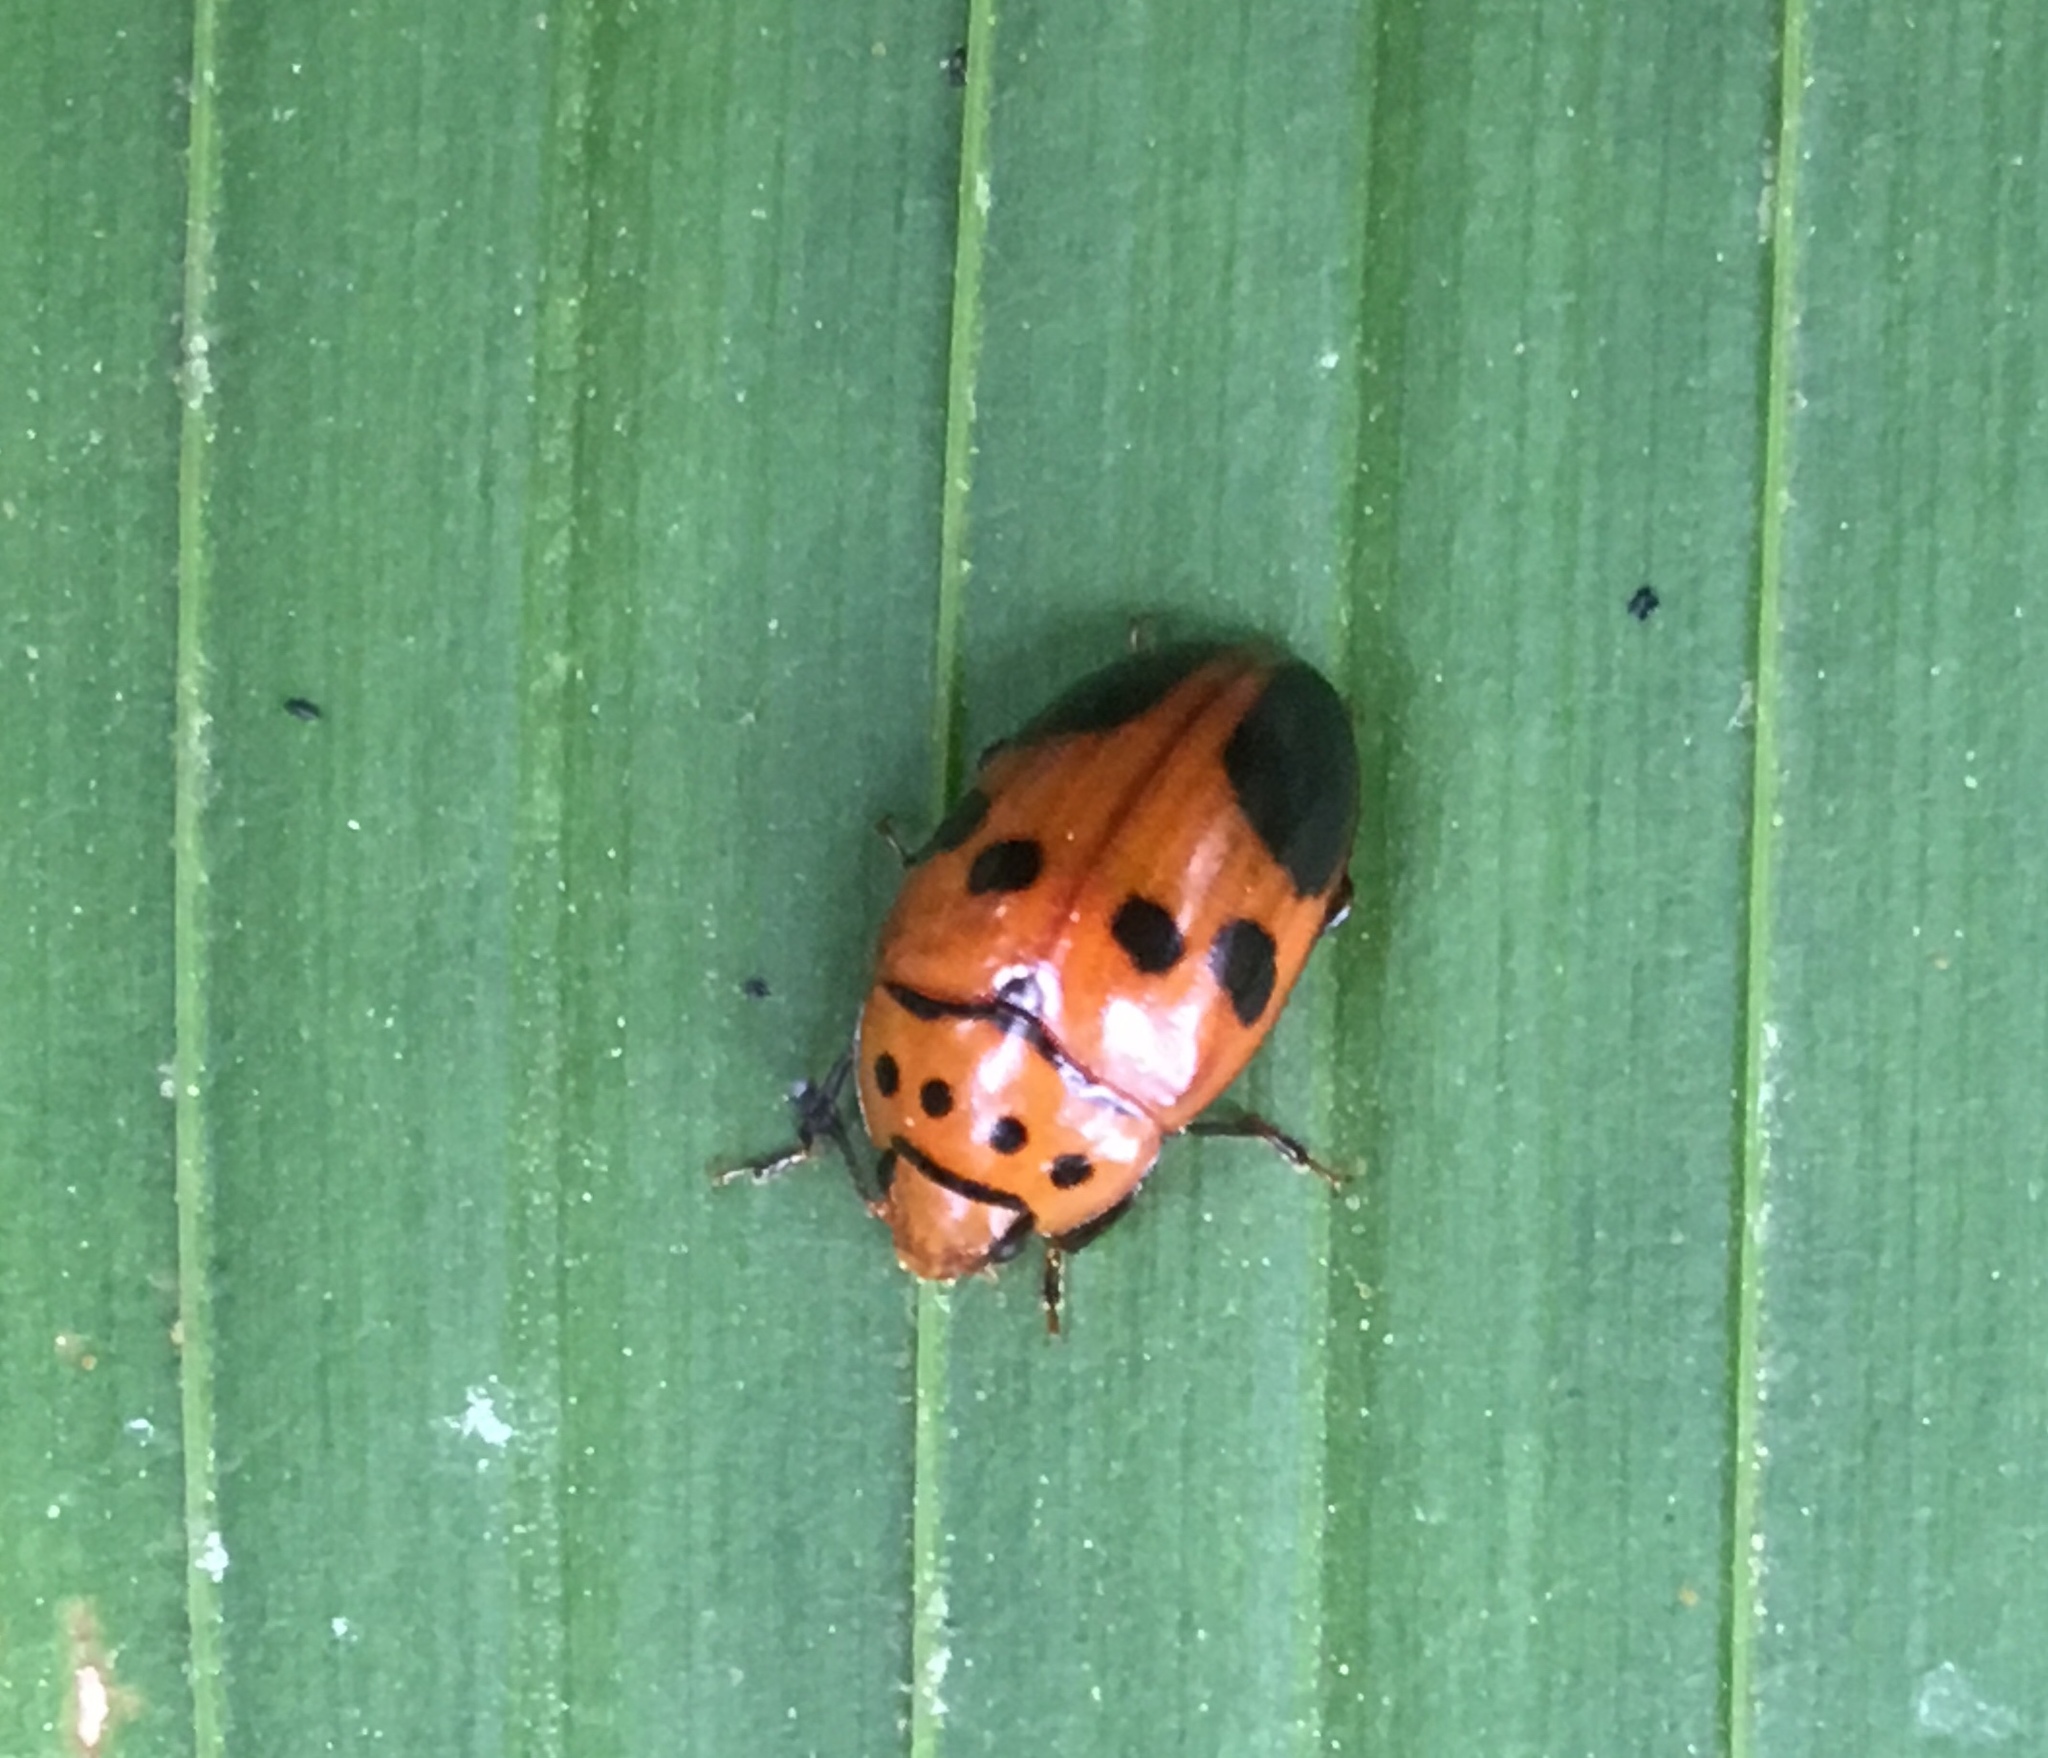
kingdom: Animalia
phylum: Arthropoda
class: Insecta
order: Coleoptera
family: Erotylidae
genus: Mycotretus
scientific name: Mycotretus ornatus
